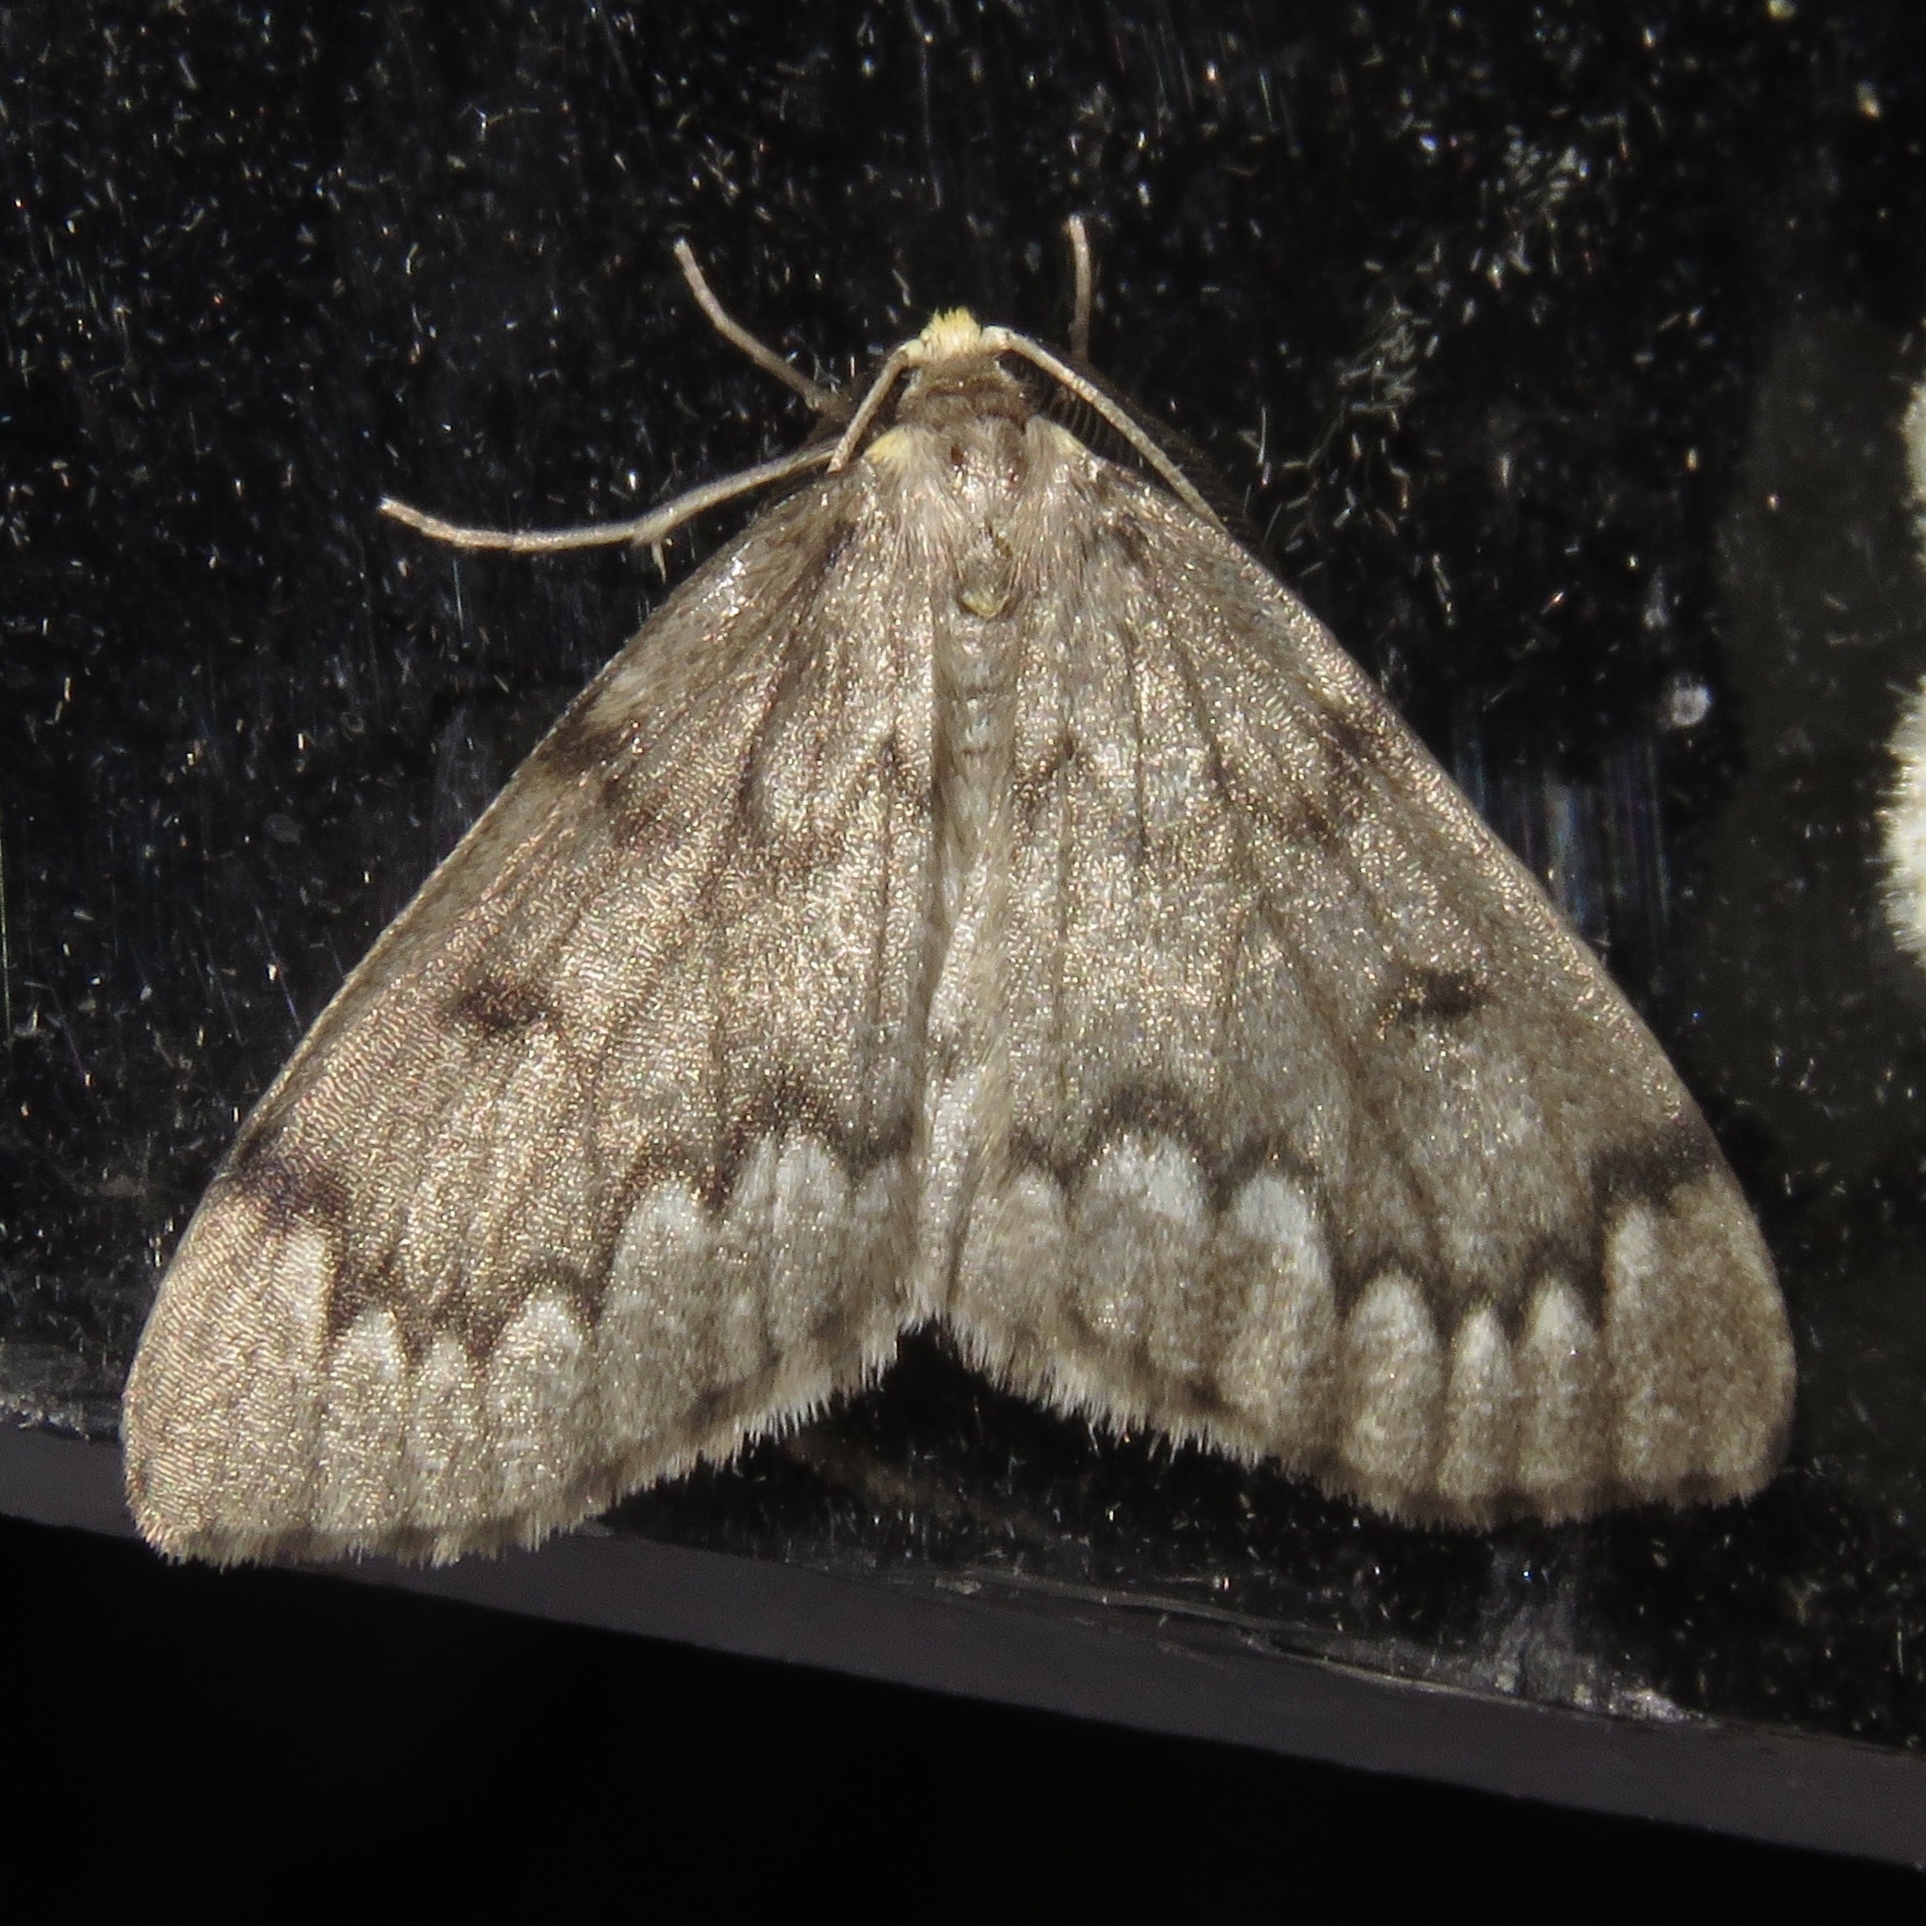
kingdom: Animalia
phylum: Arthropoda
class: Insecta
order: Lepidoptera
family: Geometridae
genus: Nepytia
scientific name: Nepytia canosaria
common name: False hemlock looper
